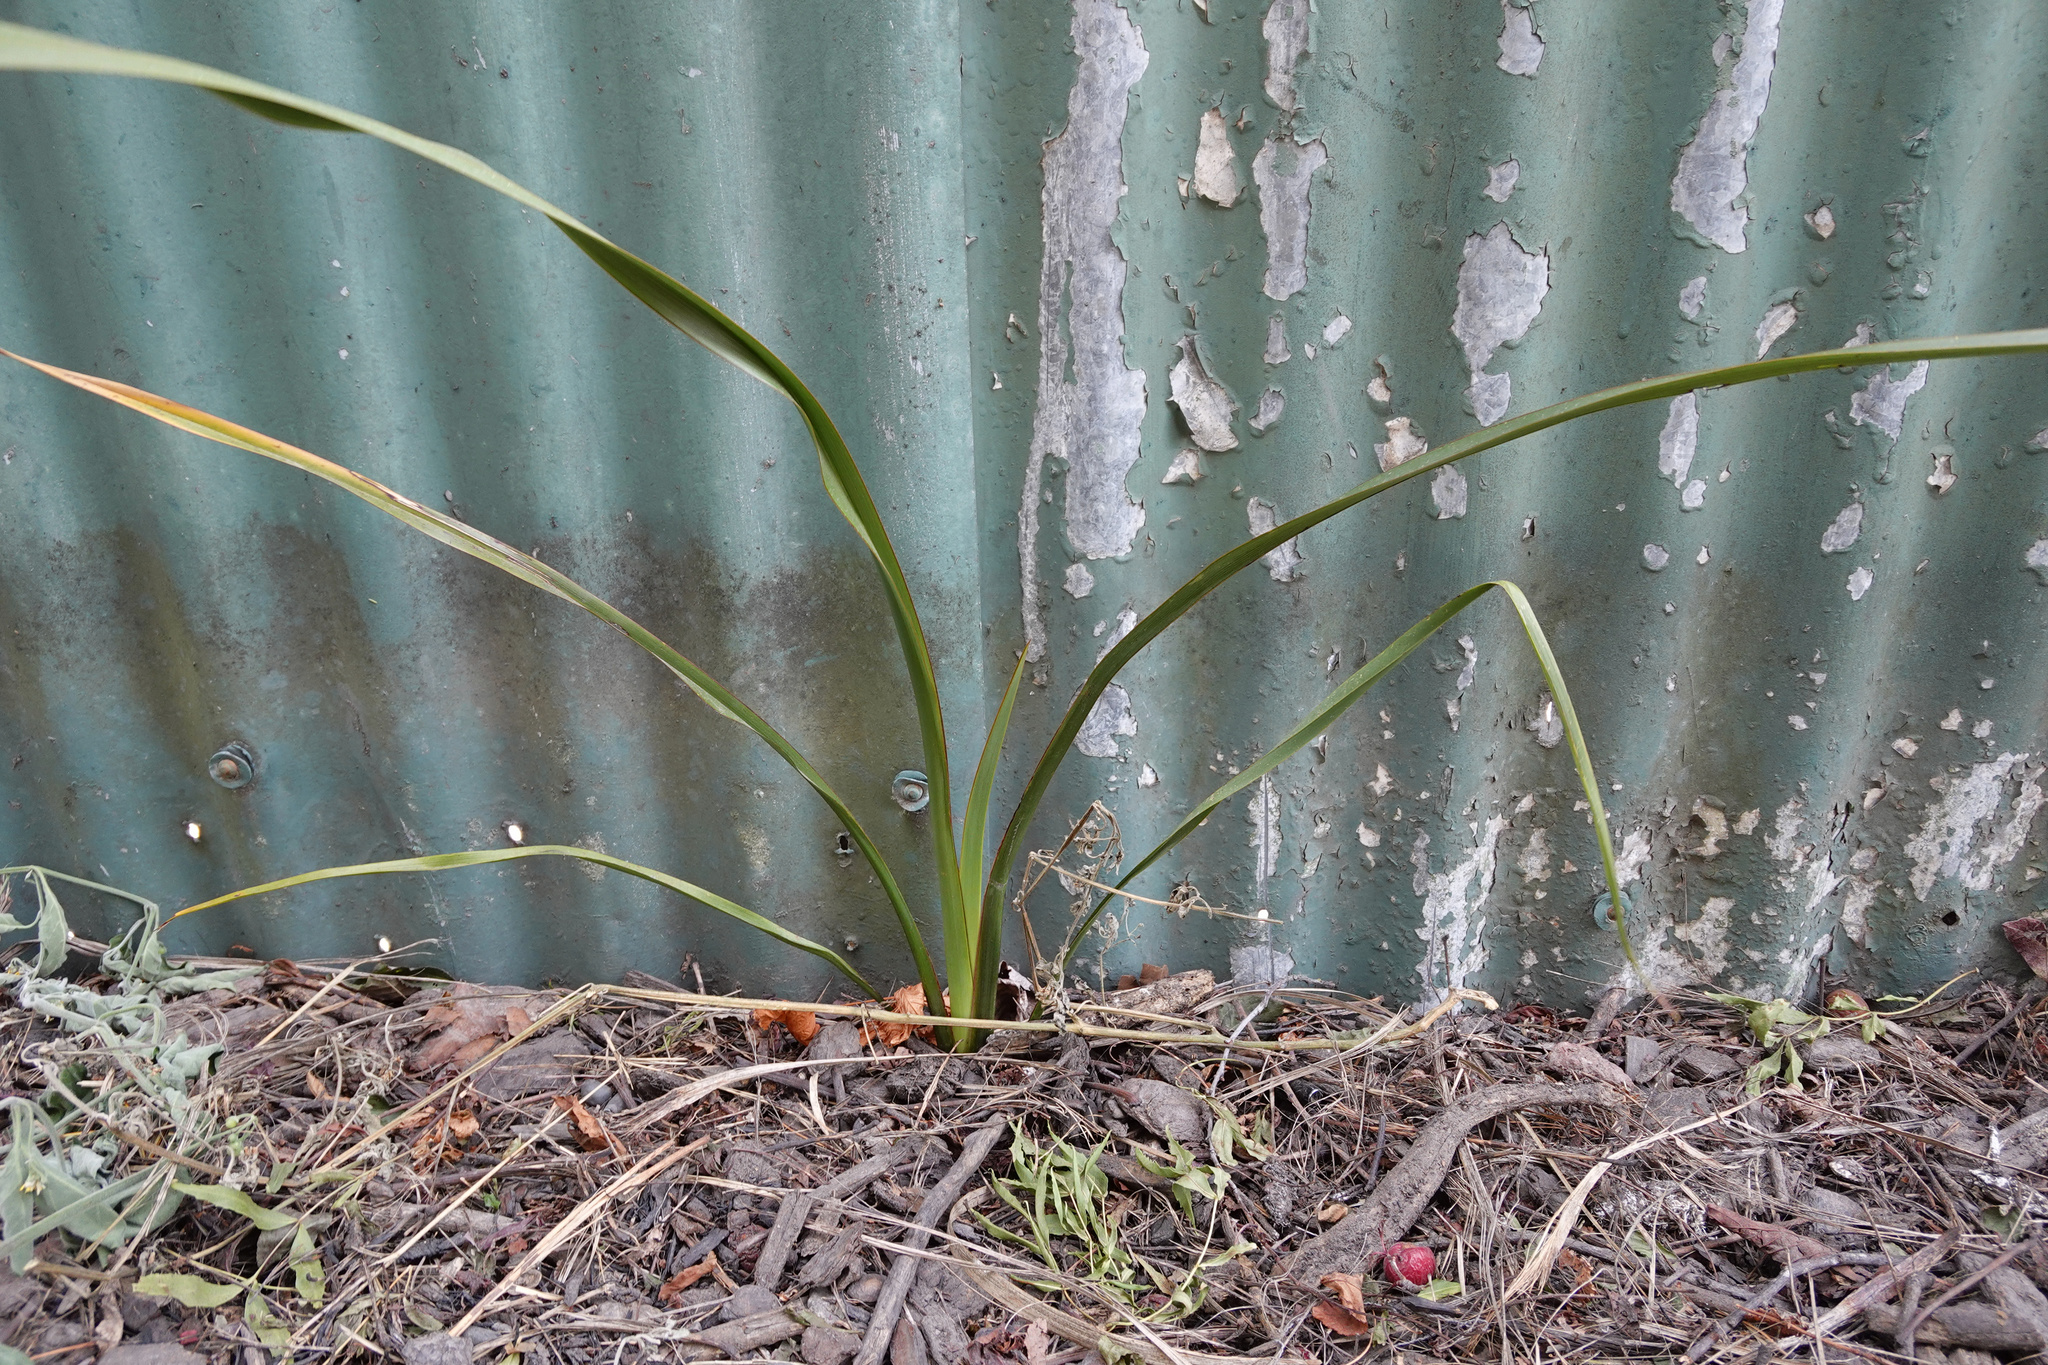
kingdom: Plantae
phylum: Tracheophyta
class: Liliopsida
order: Asparagales
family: Asparagaceae
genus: Cordyline
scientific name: Cordyline australis
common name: Cabbage-palm
